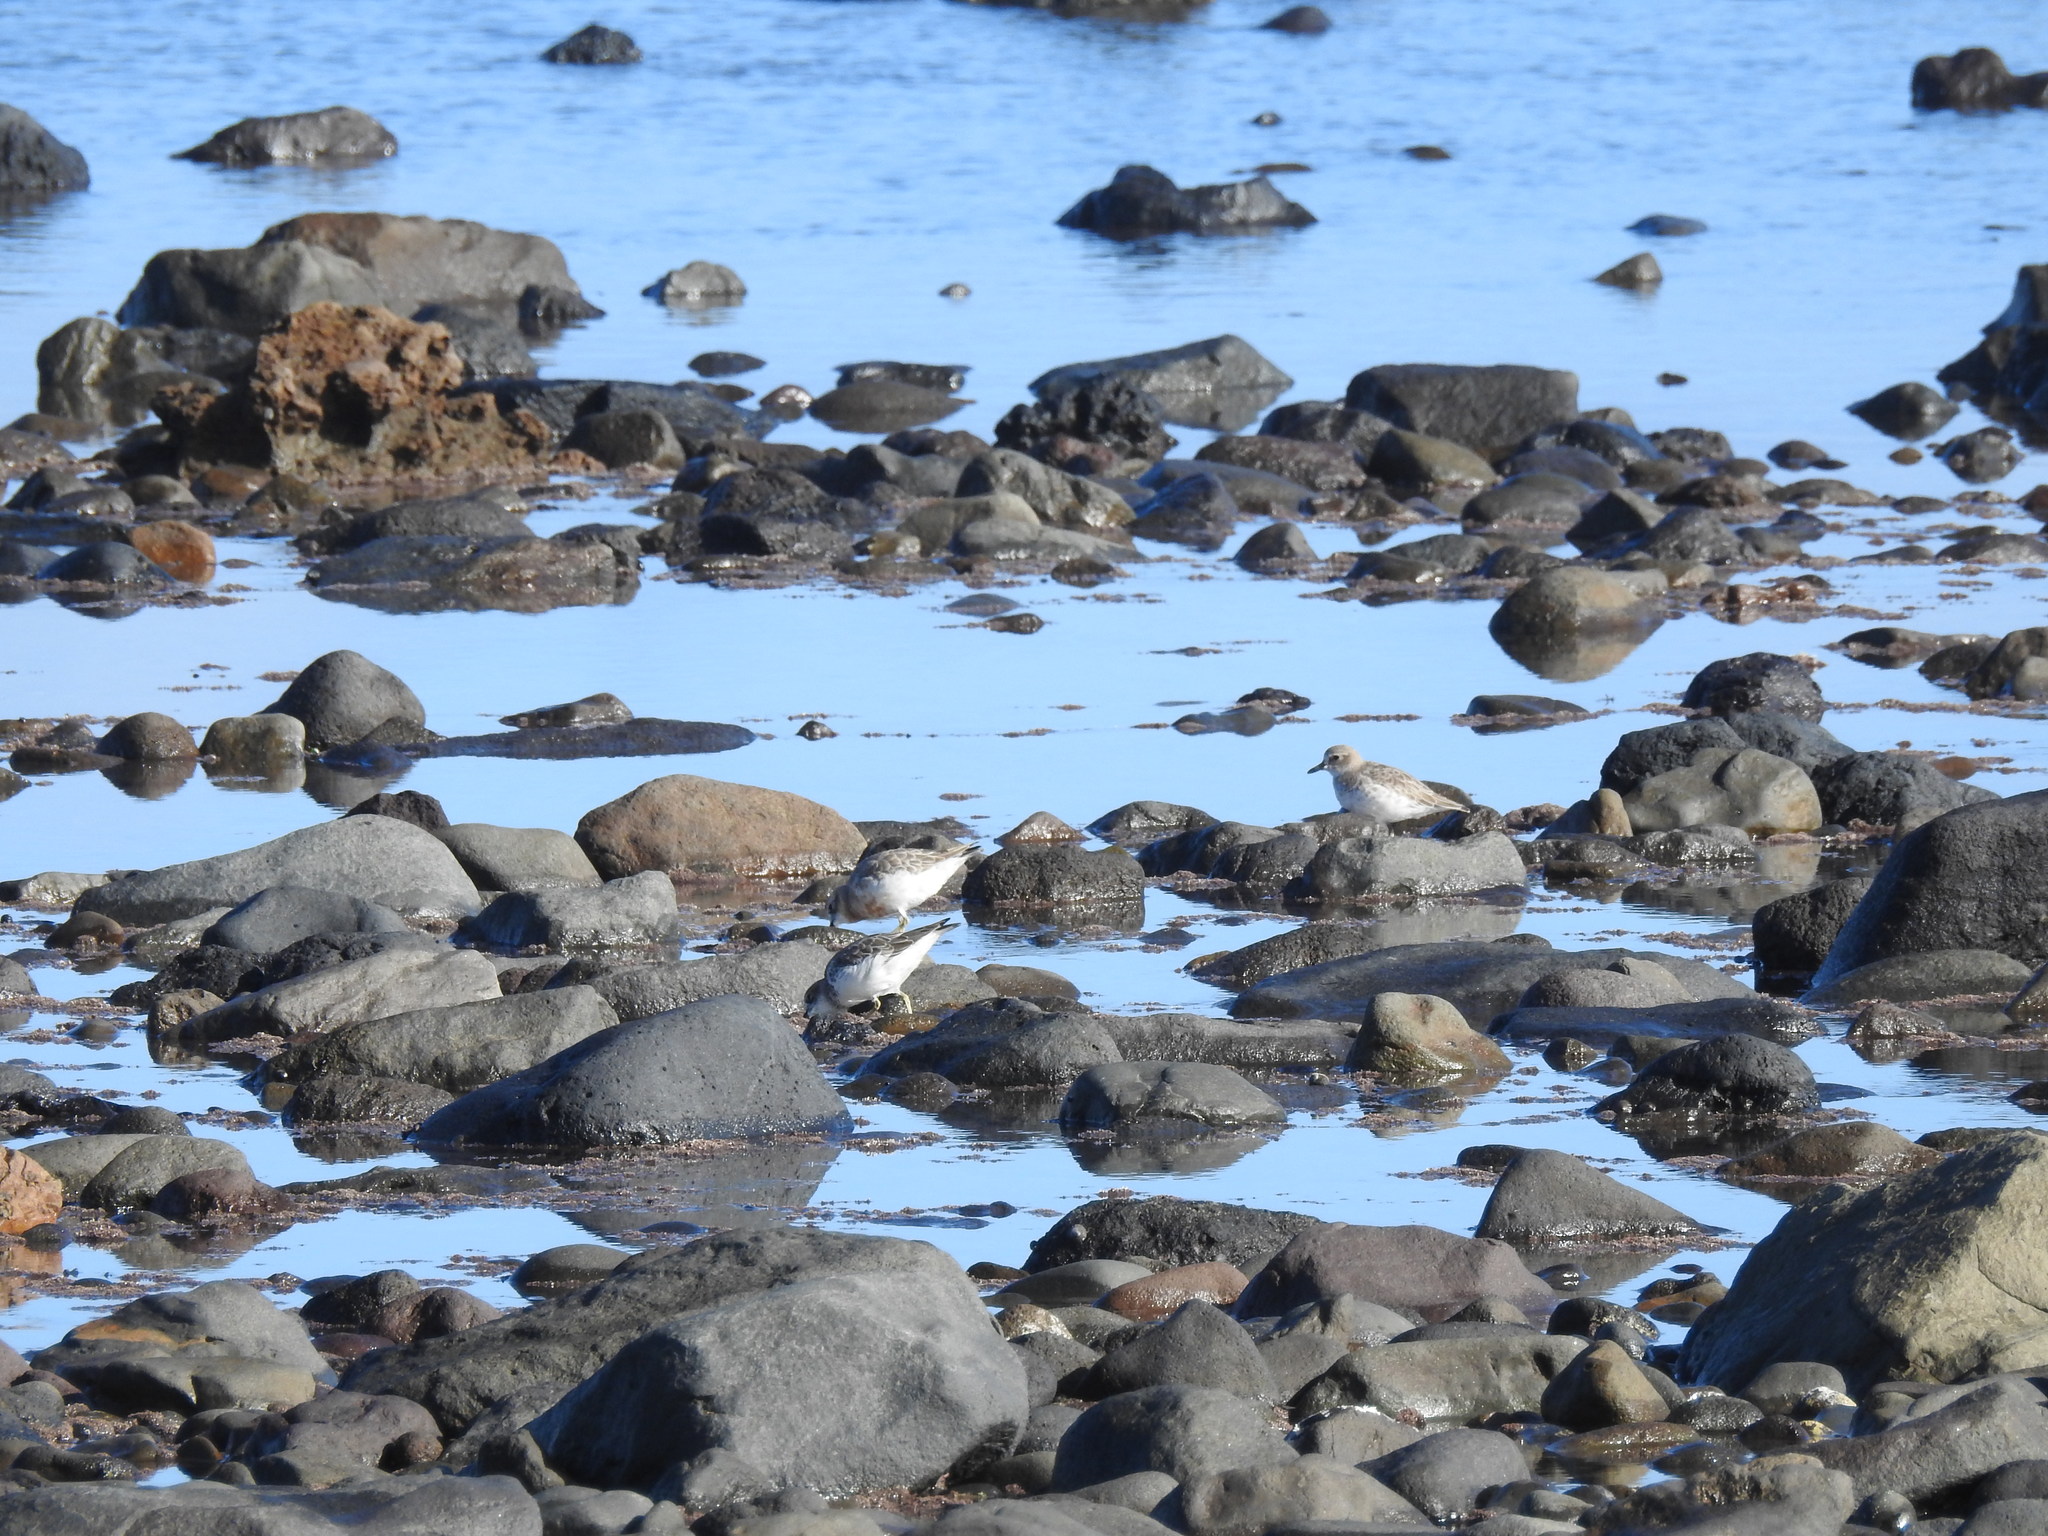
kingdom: Animalia
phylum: Chordata
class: Aves
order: Charadriiformes
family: Charadriidae
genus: Anarhynchus
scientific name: Anarhynchus
